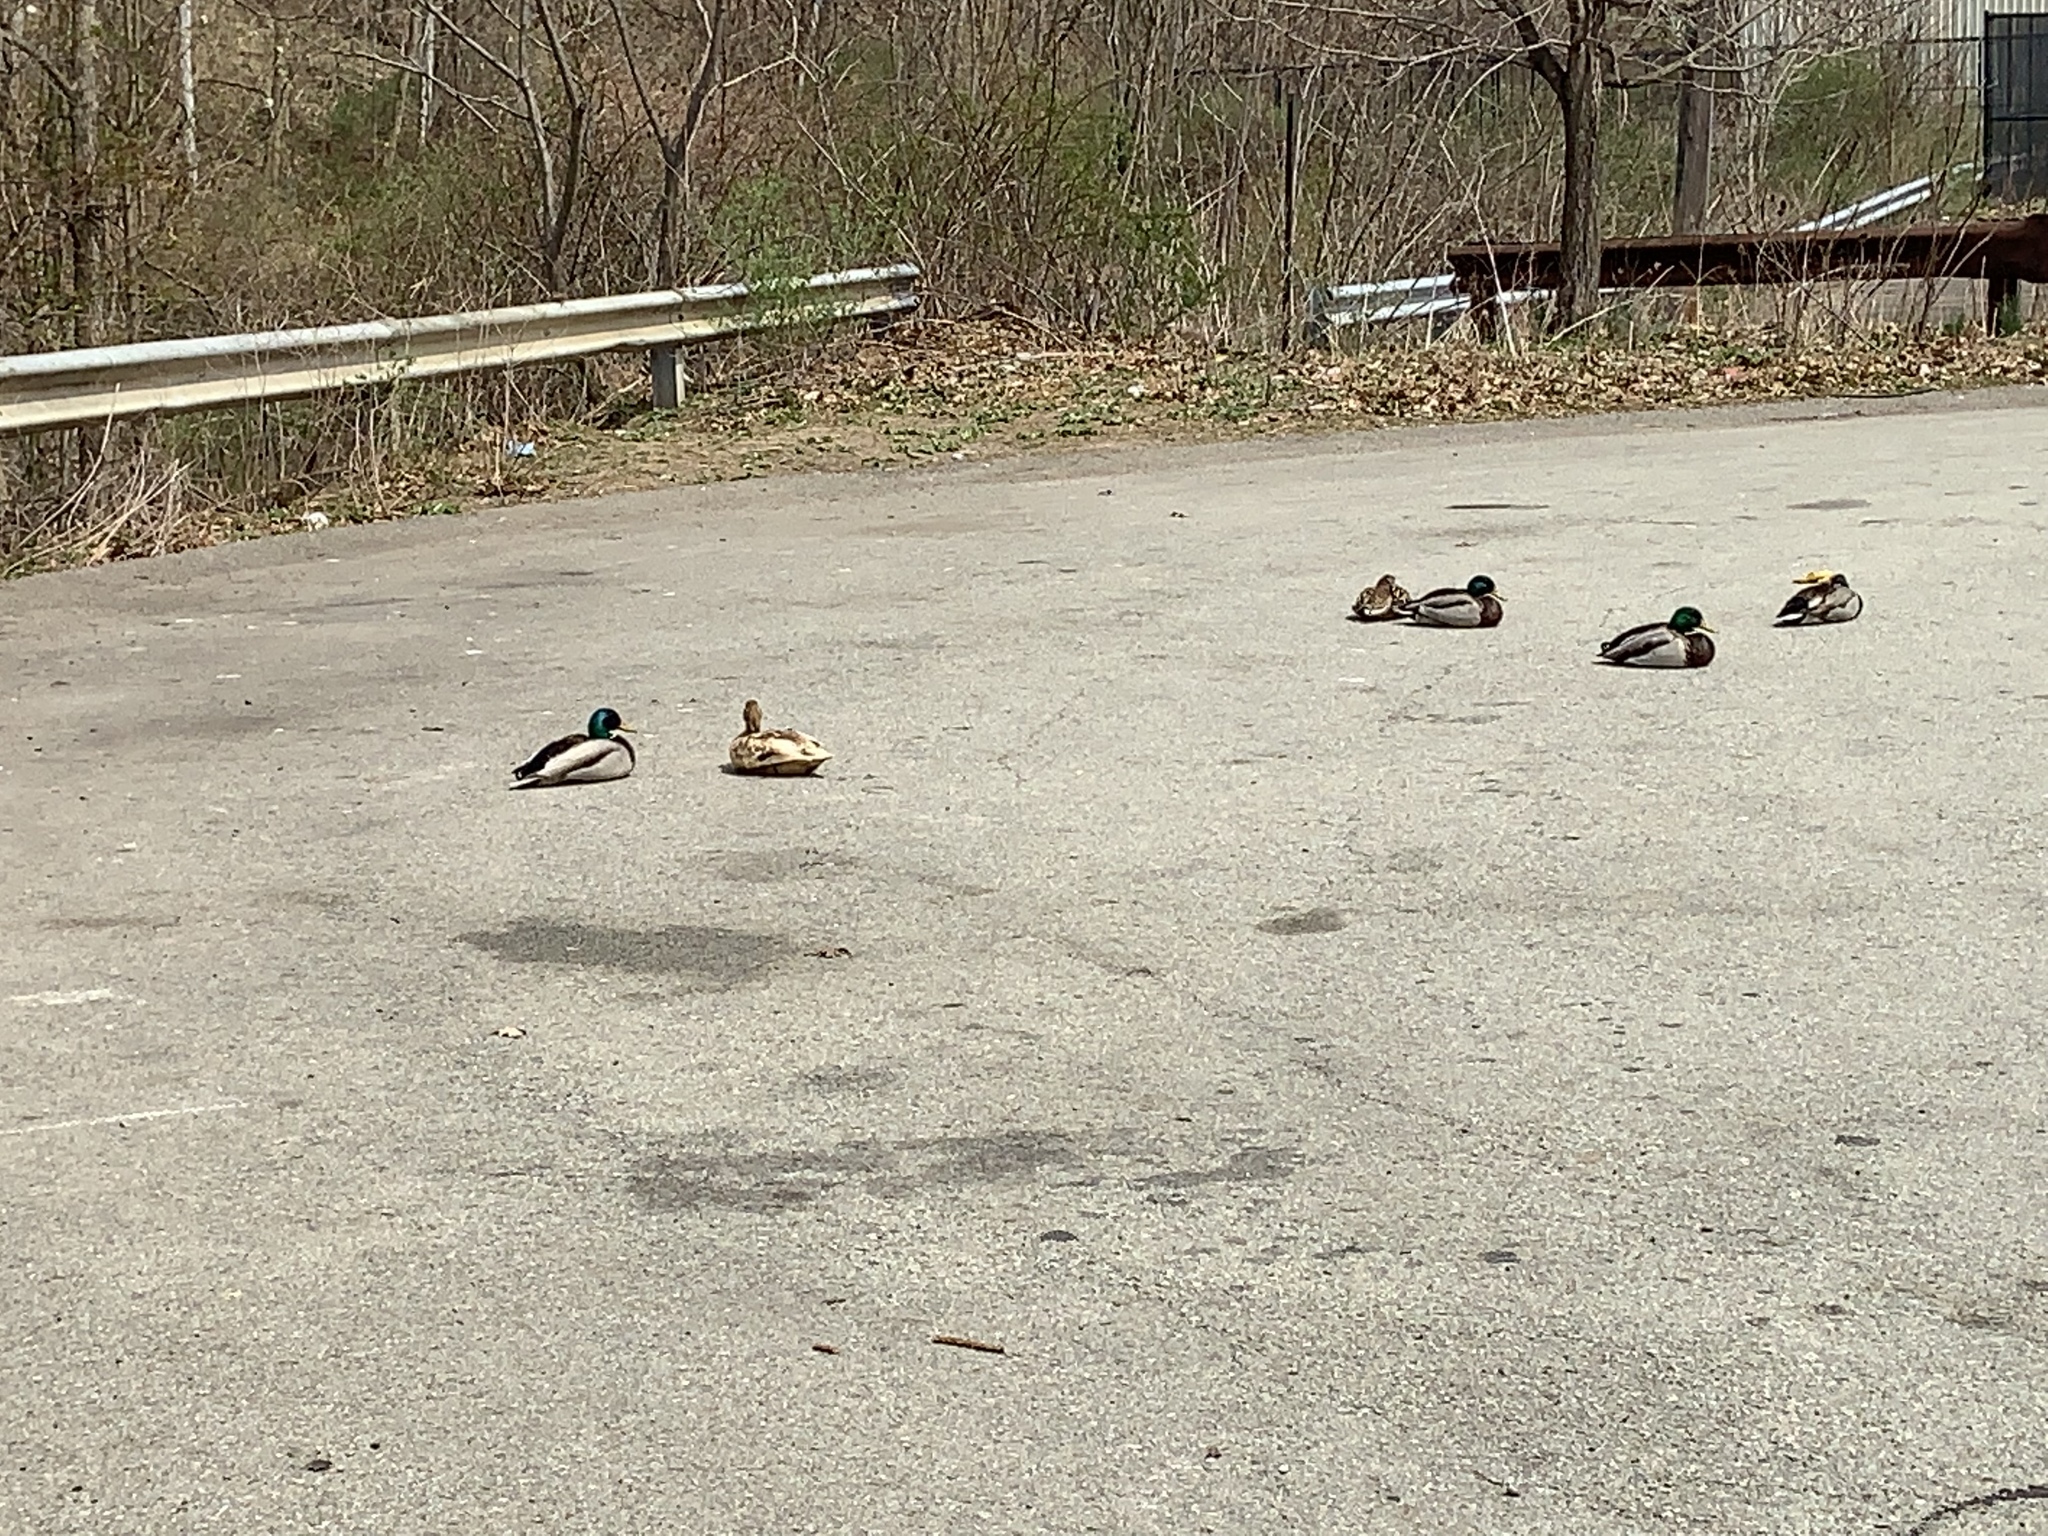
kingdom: Animalia
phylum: Chordata
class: Aves
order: Anseriformes
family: Anatidae
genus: Anas
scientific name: Anas platyrhynchos
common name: Mallard
